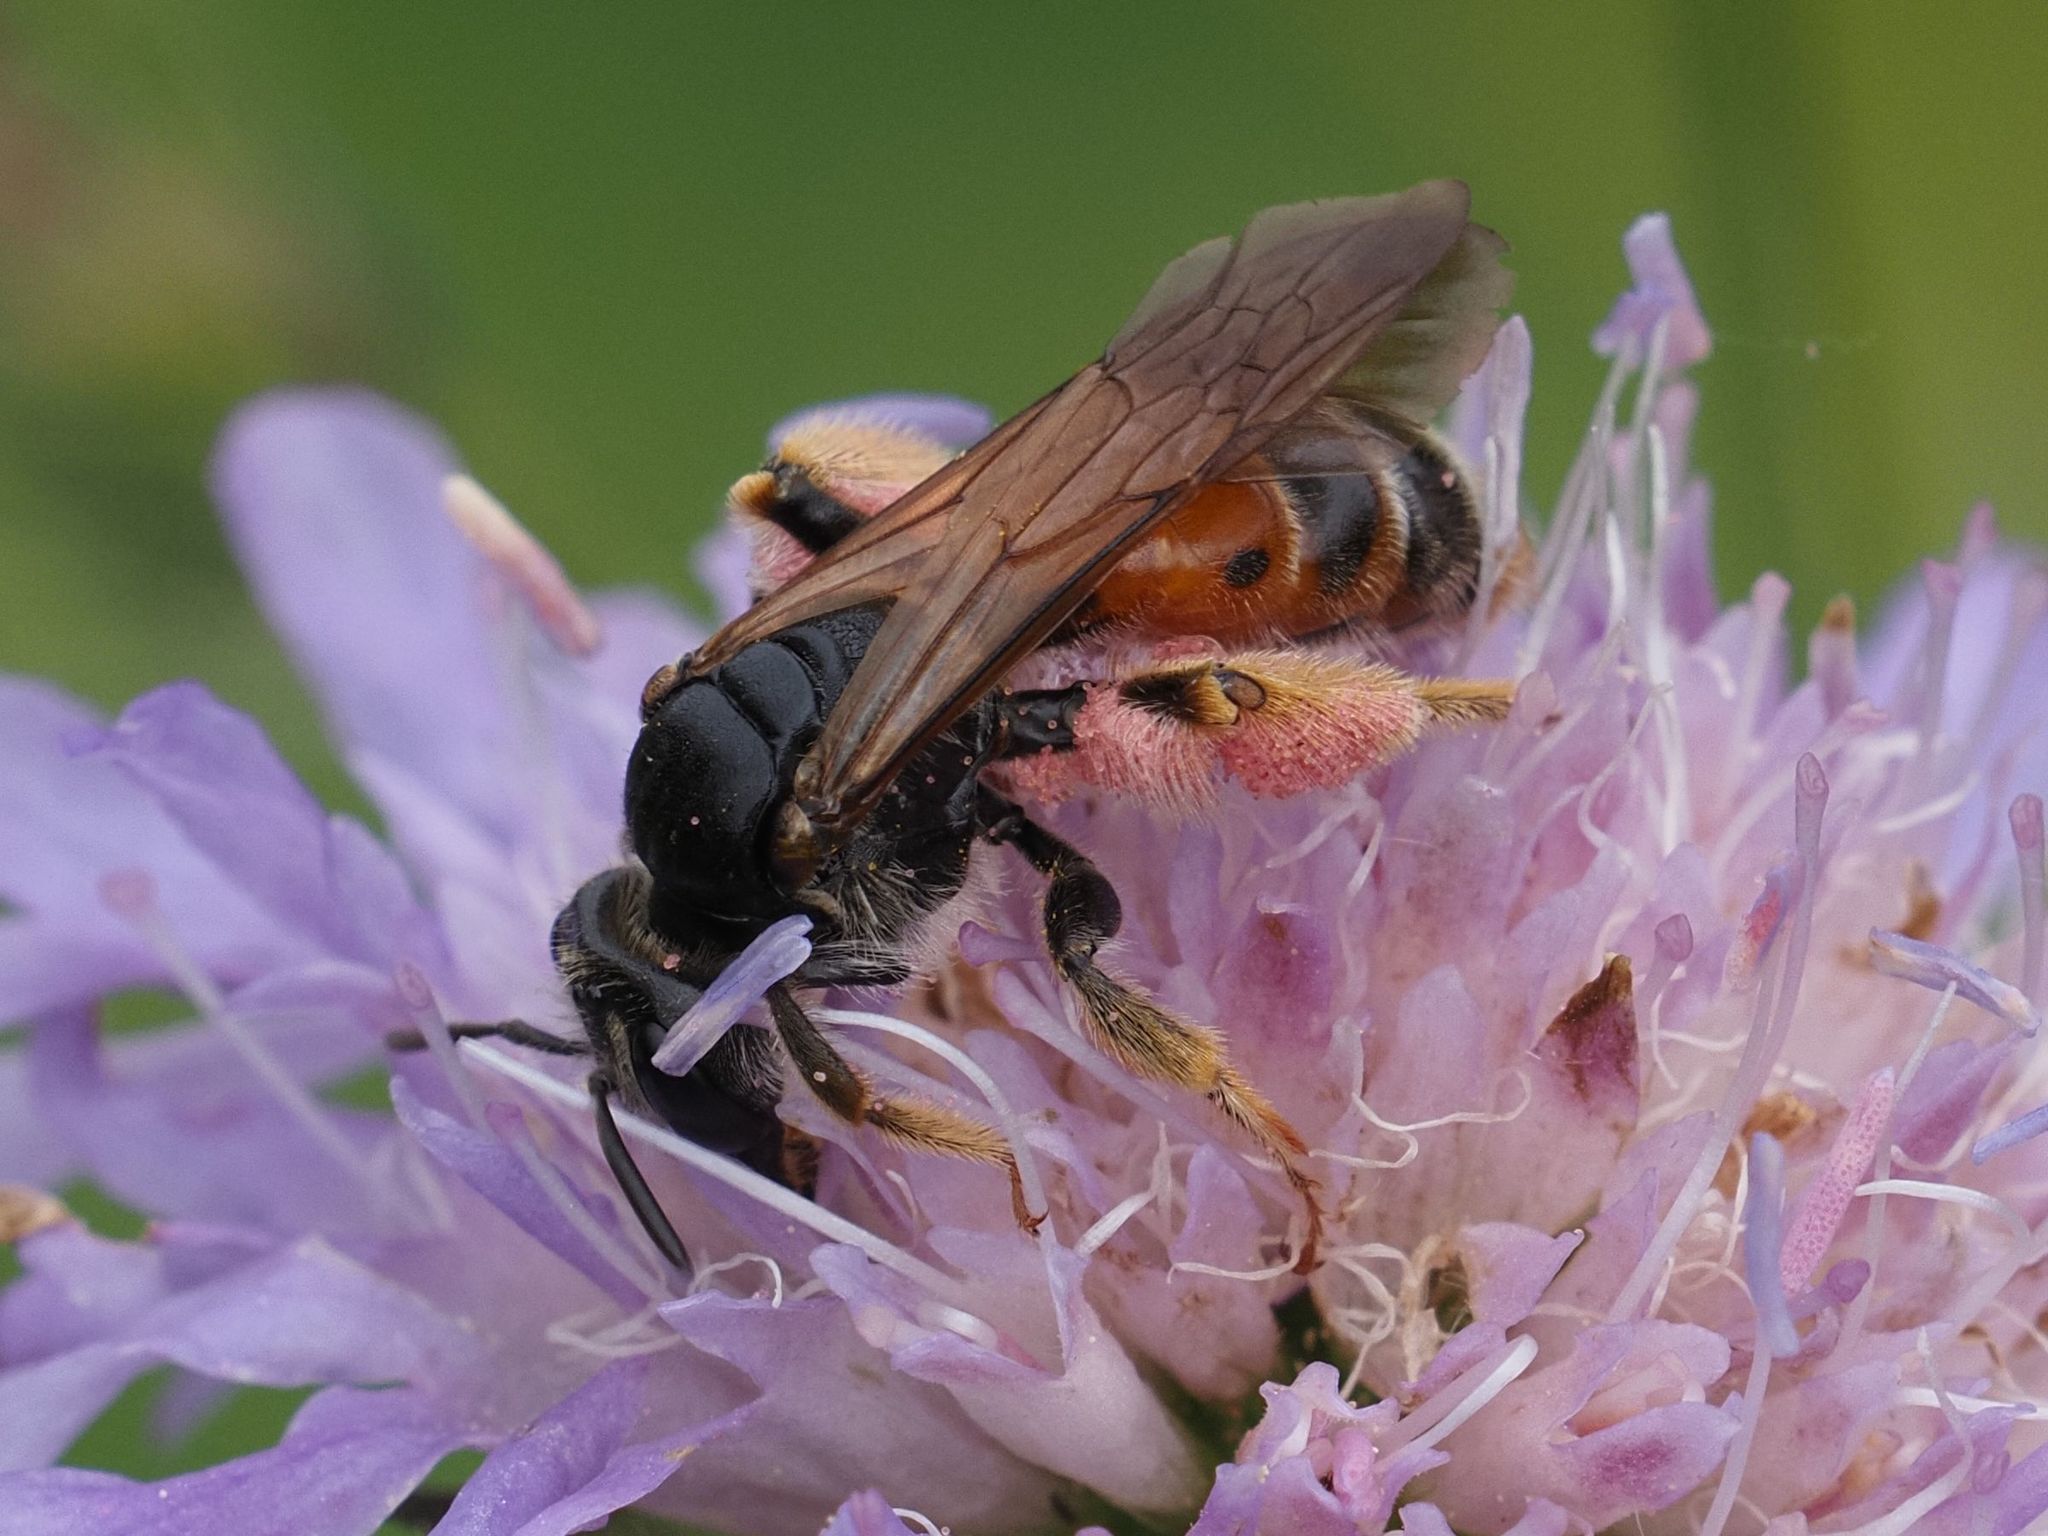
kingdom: Animalia
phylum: Arthropoda
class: Insecta
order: Hymenoptera
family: Andrenidae
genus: Andrena
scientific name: Andrena hattorfiana
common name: Large scabious mining bee
